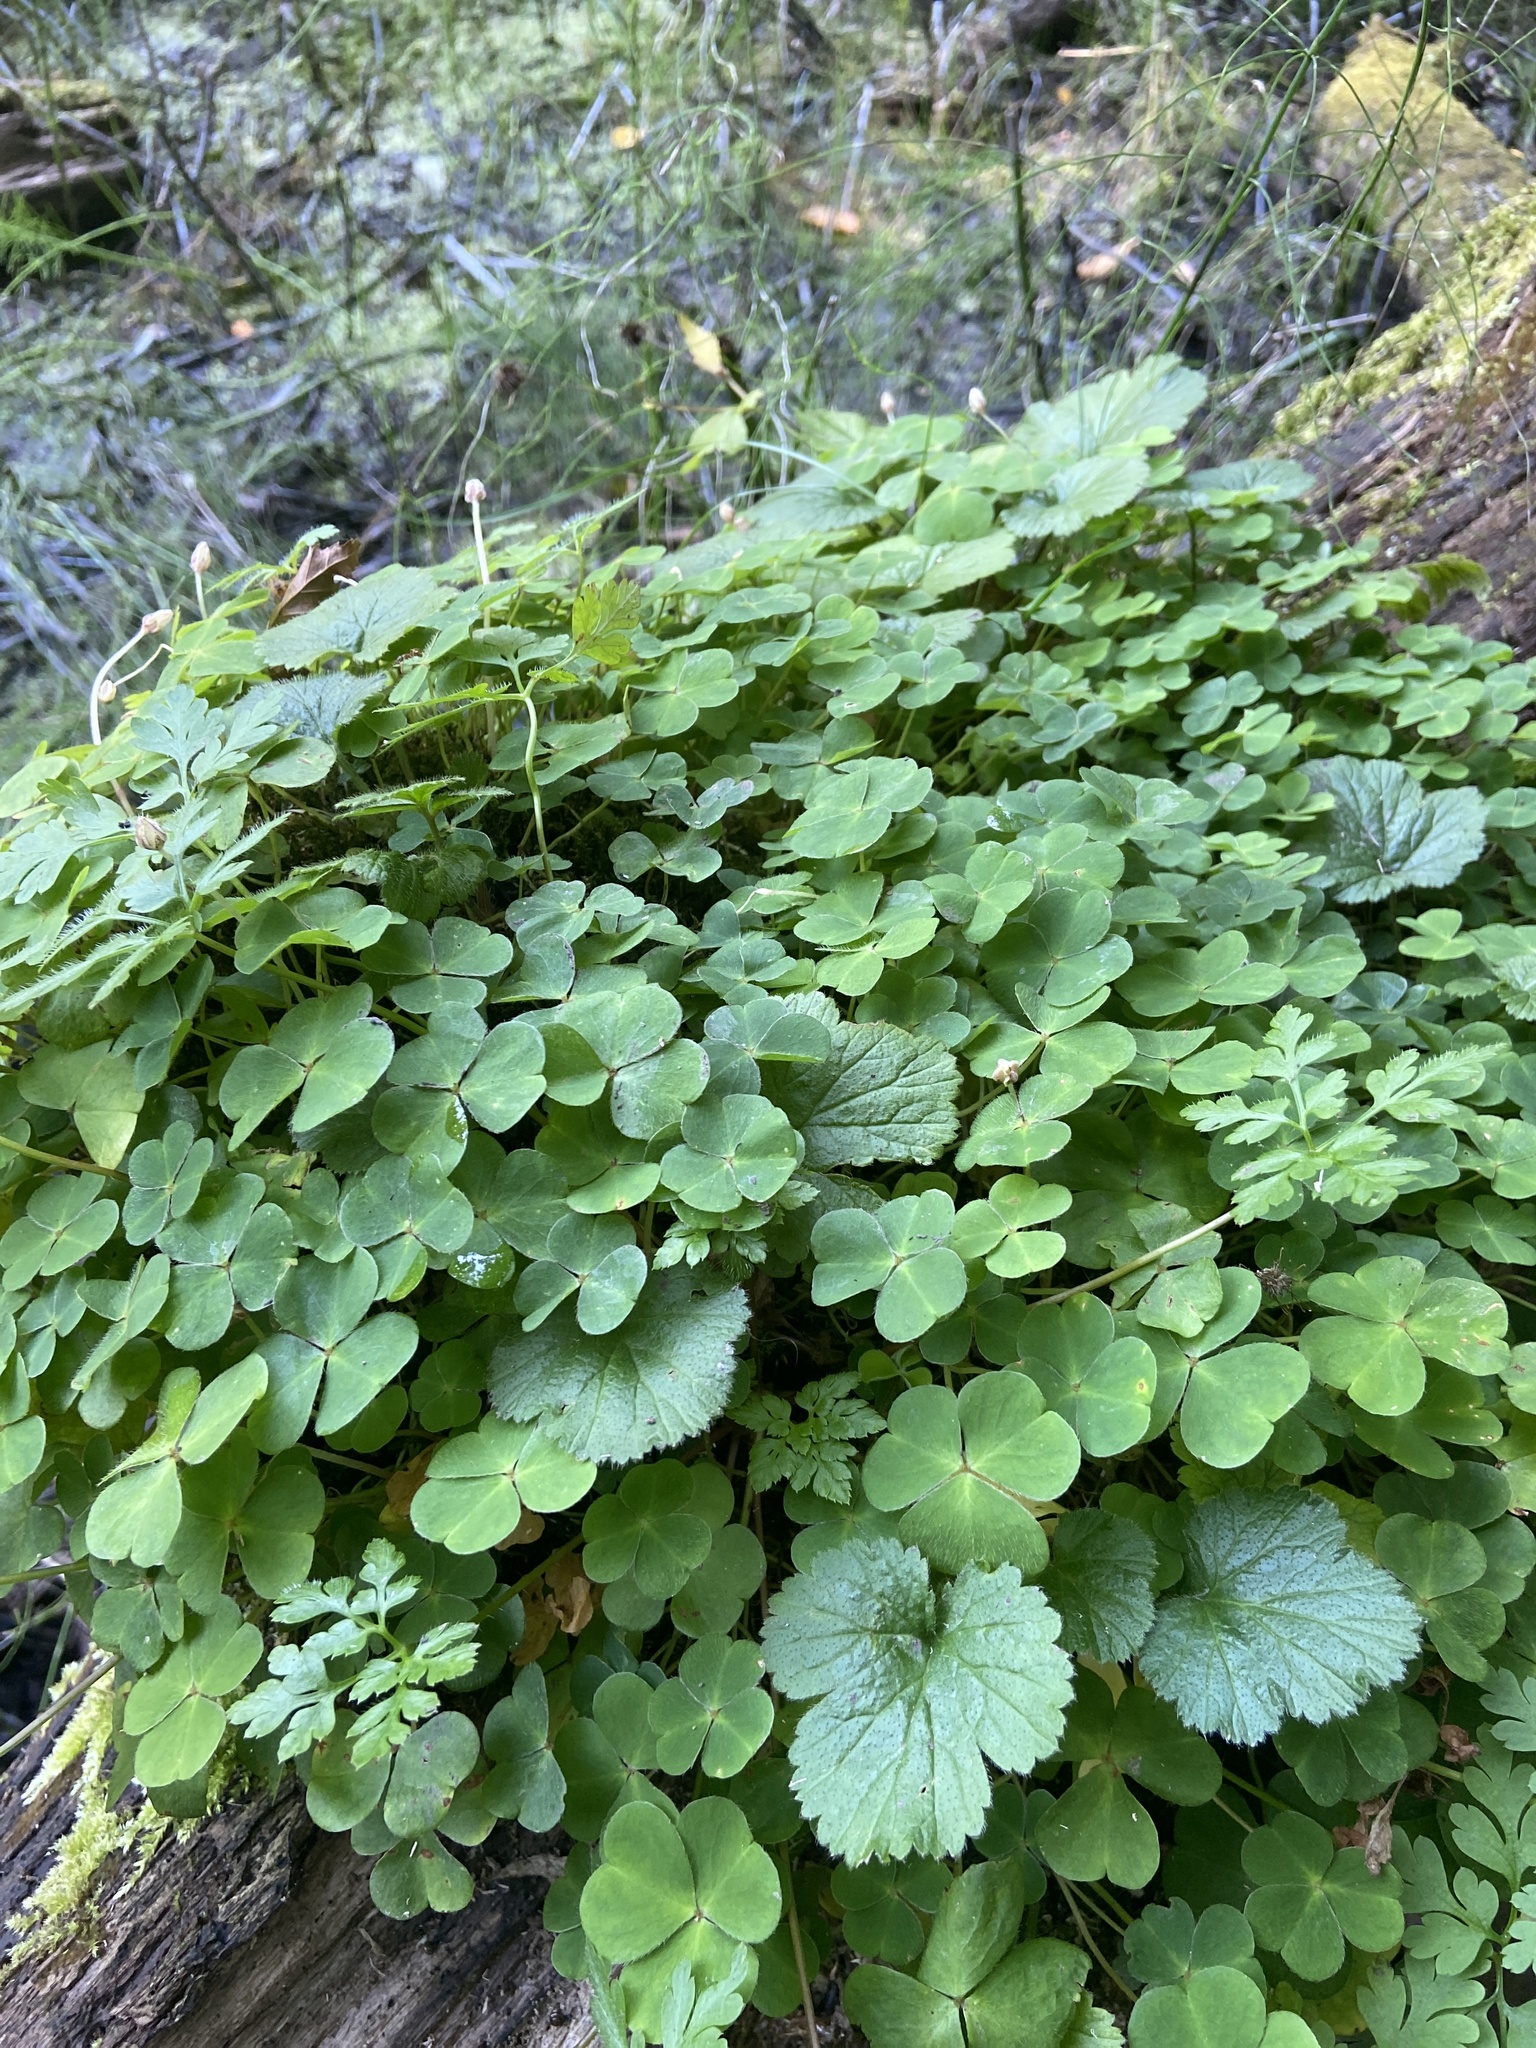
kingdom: Plantae
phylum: Tracheophyta
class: Magnoliopsida
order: Oxalidales
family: Oxalidaceae
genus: Oxalis
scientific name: Oxalis acetosella
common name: Wood-sorrel
